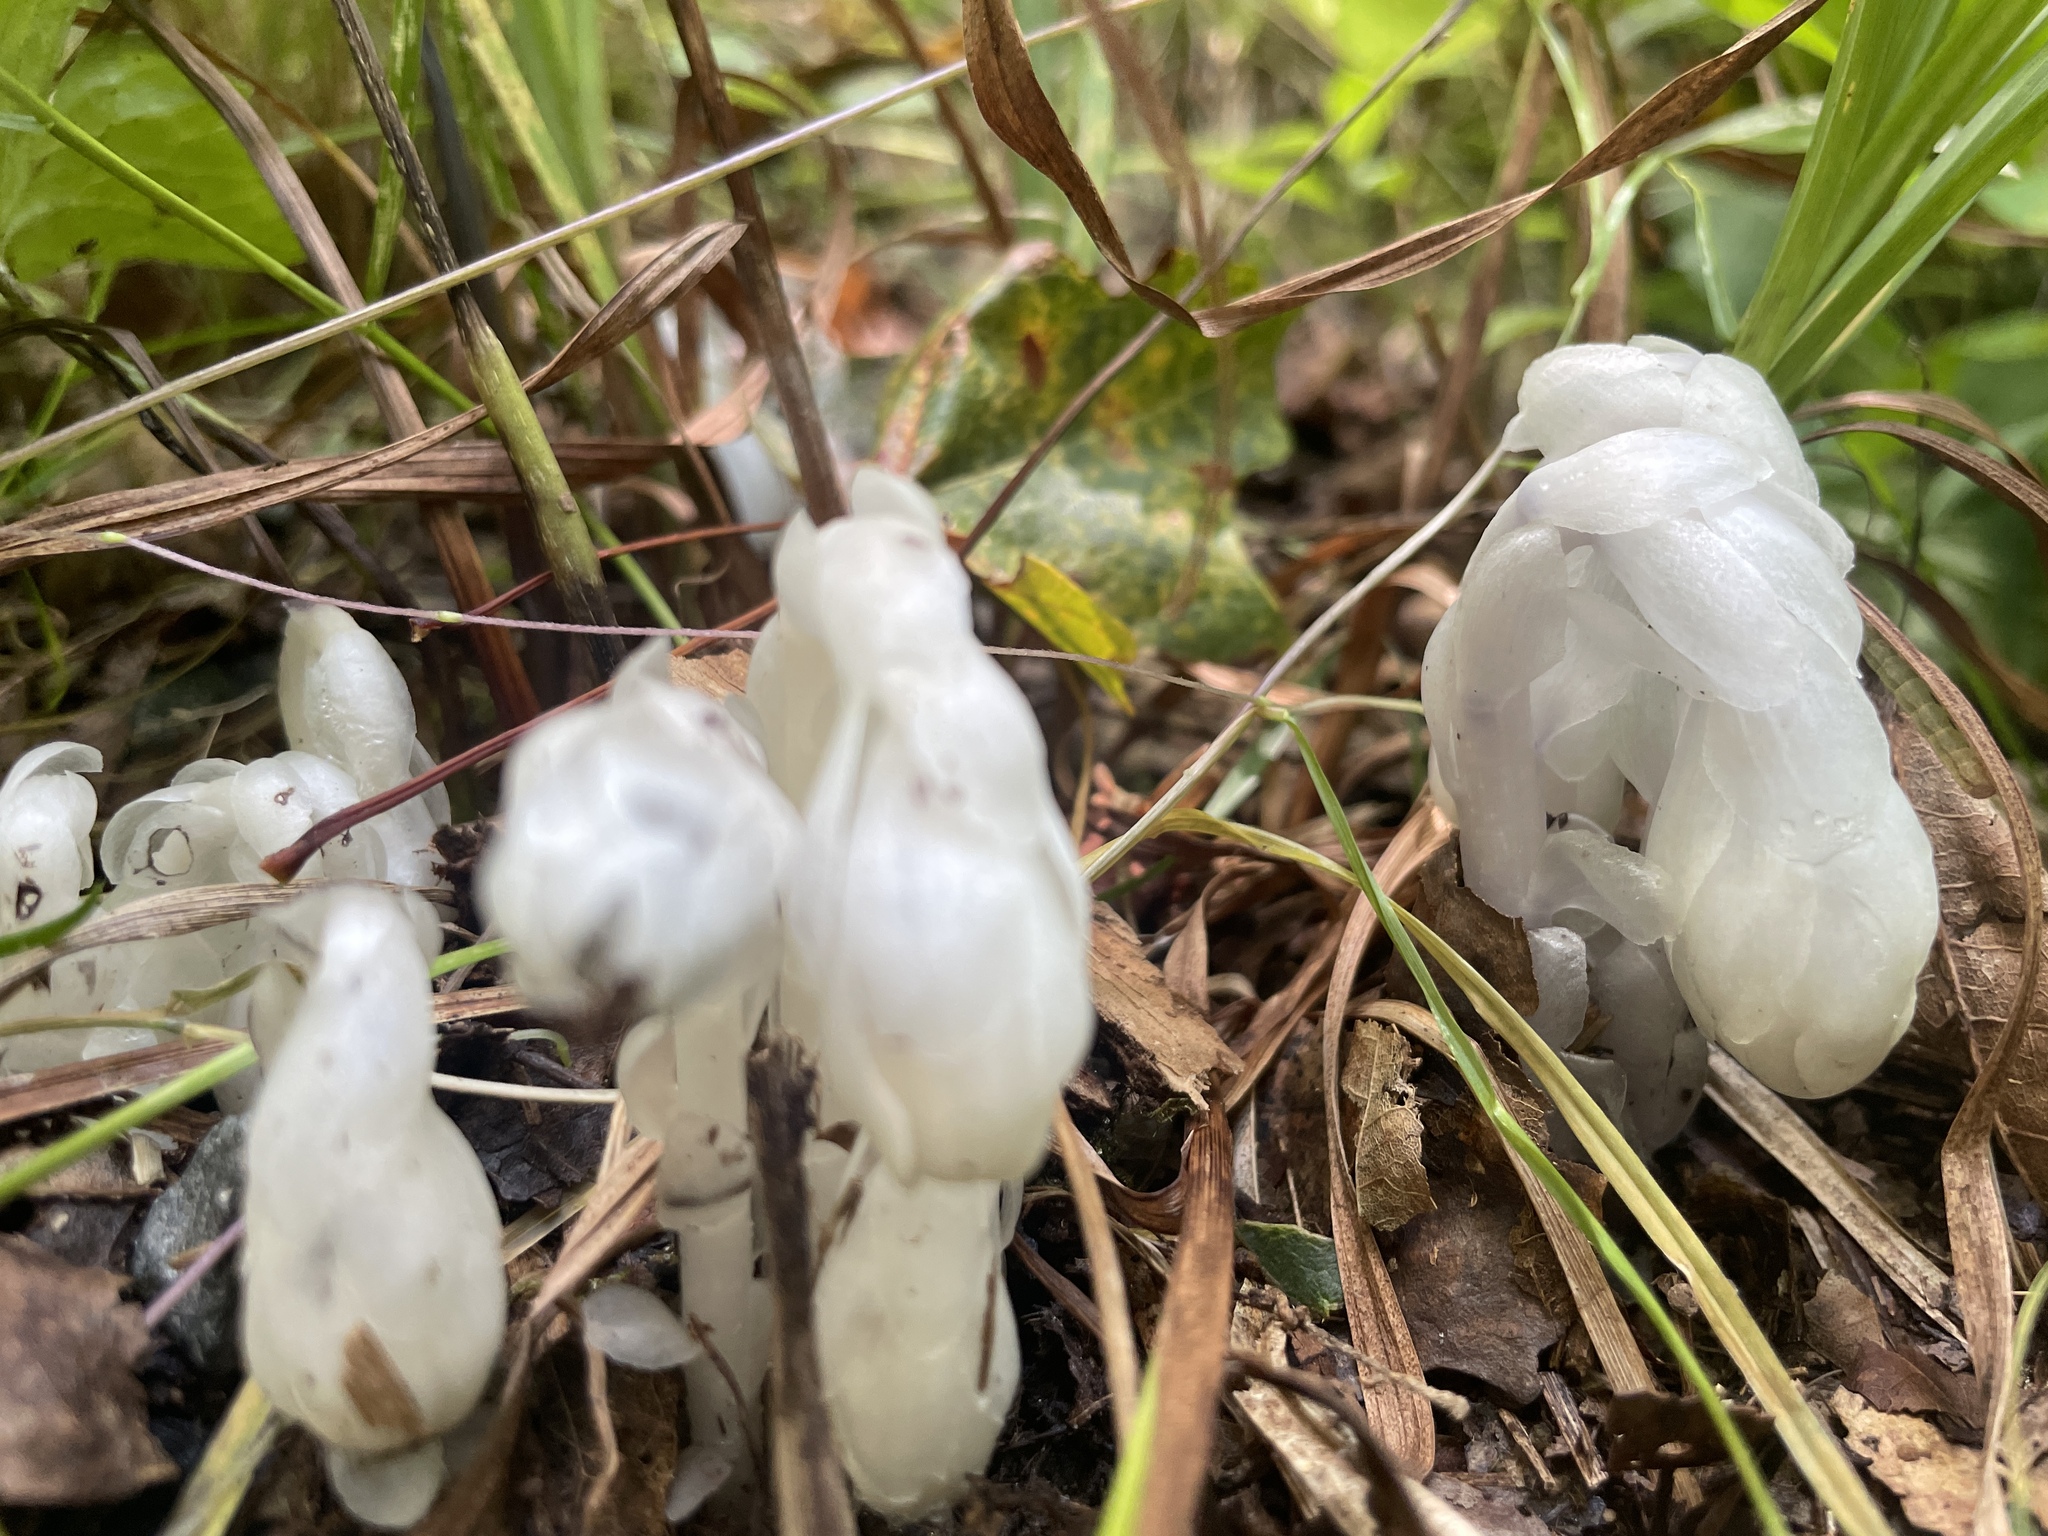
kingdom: Plantae
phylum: Tracheophyta
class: Magnoliopsida
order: Ericales
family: Ericaceae
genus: Monotropa
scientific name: Monotropa uniflora
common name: Convulsion root
